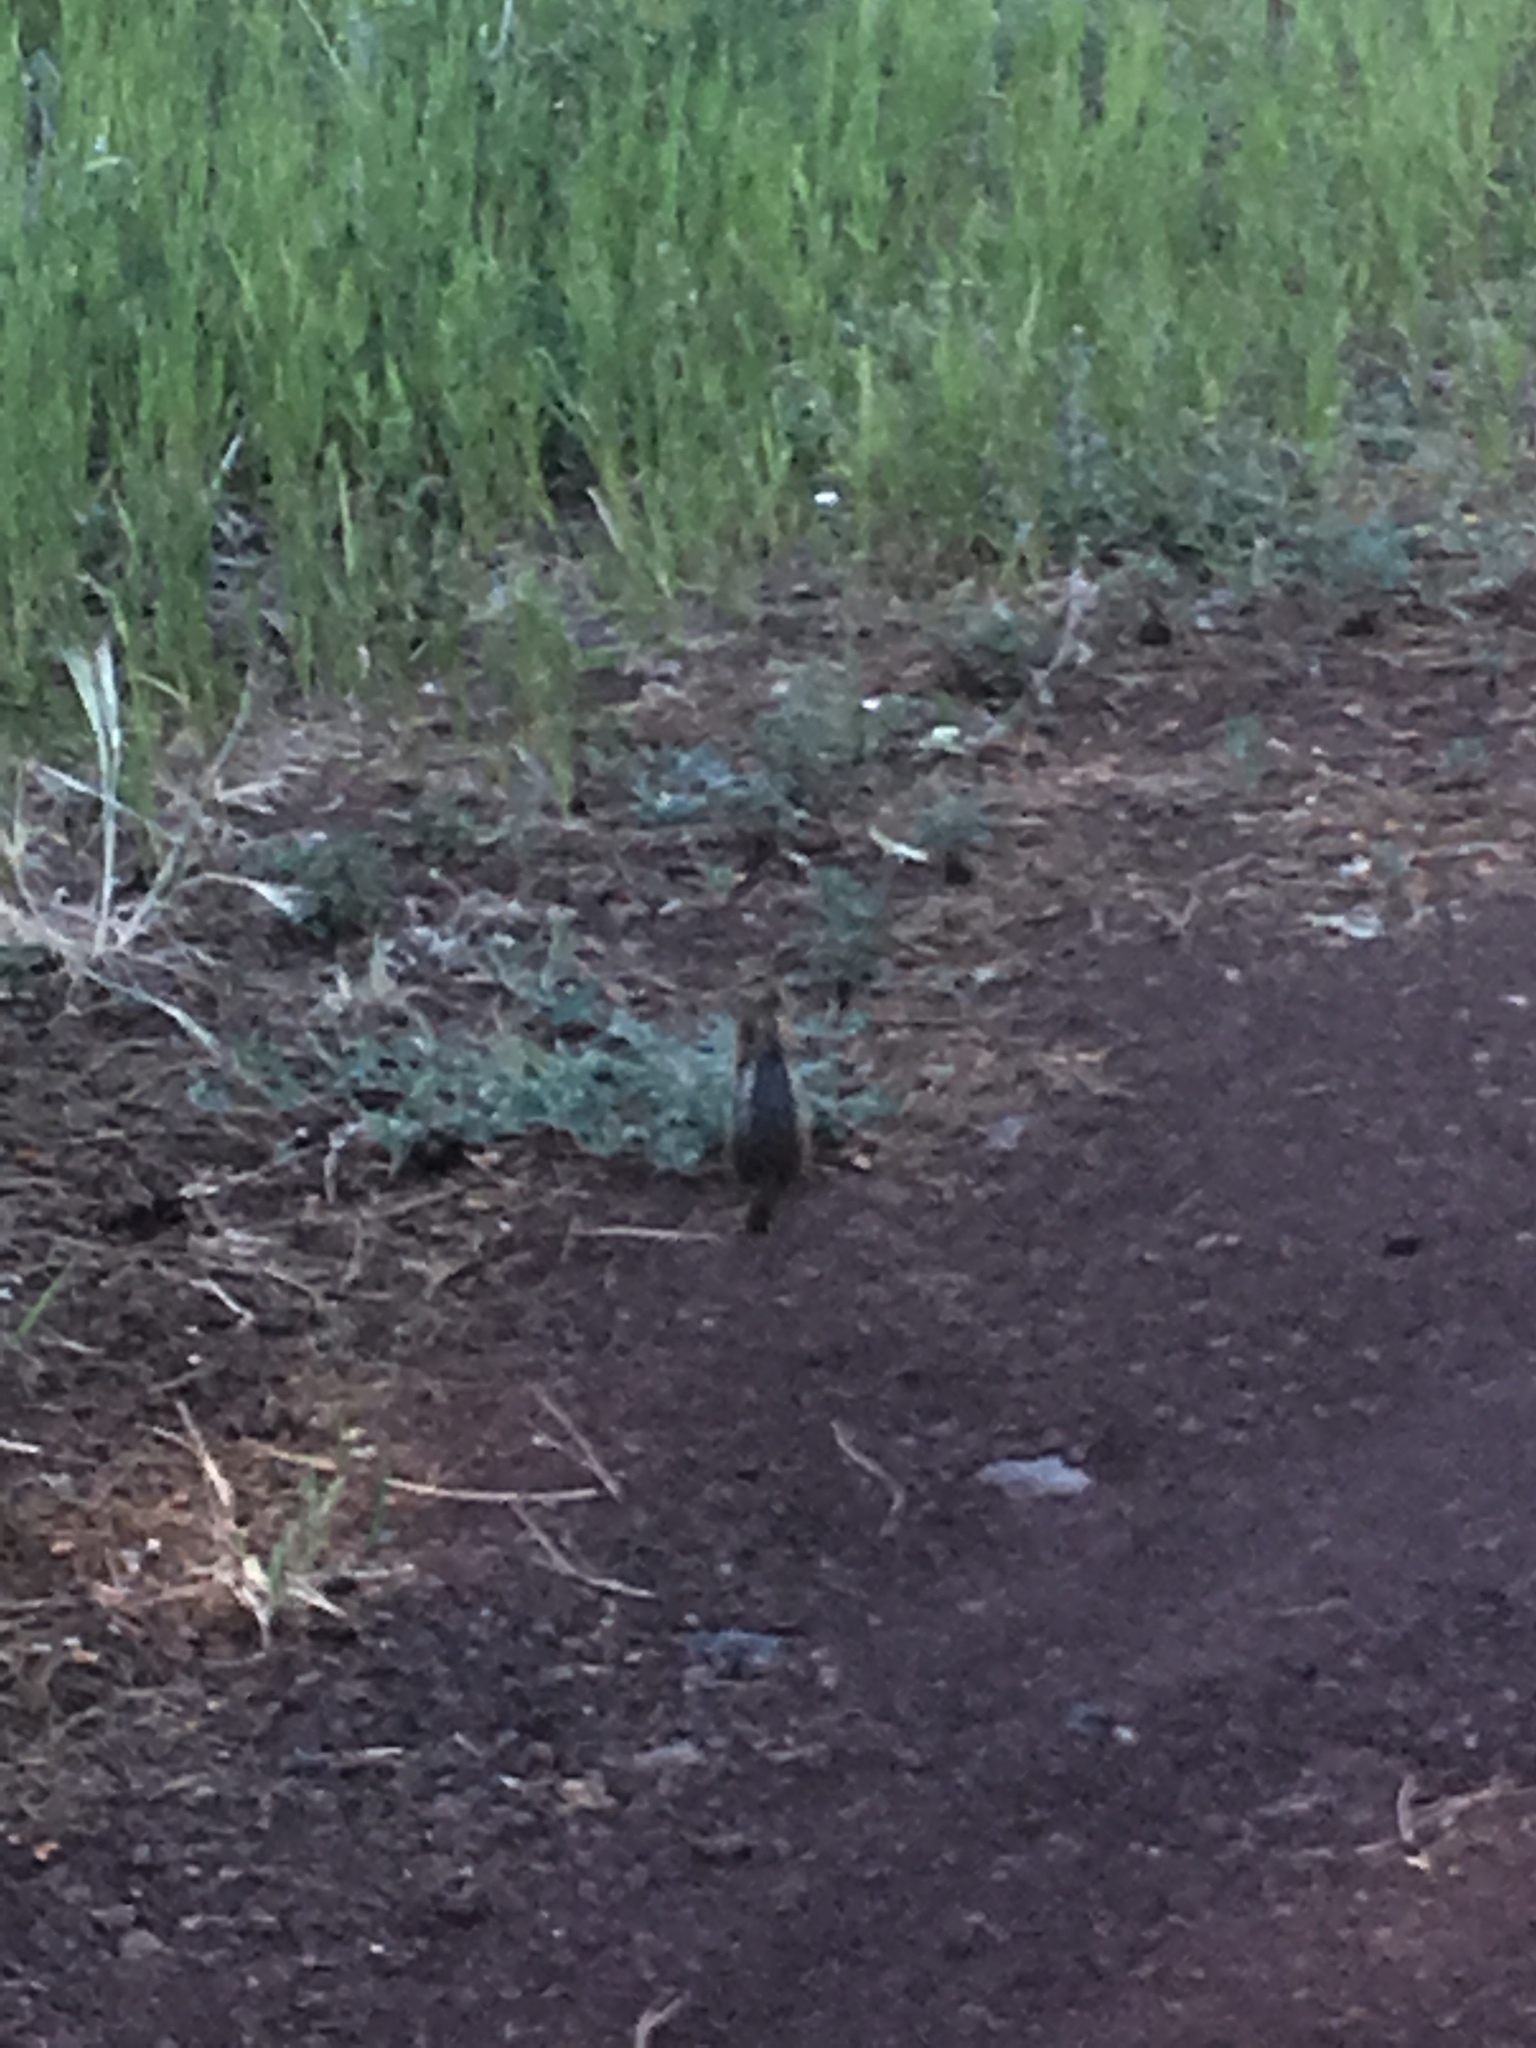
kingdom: Animalia
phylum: Chordata
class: Mammalia
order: Rodentia
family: Sciuridae
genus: Callospermophilus
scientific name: Callospermophilus lateralis
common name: Golden-mantled ground squirrel
